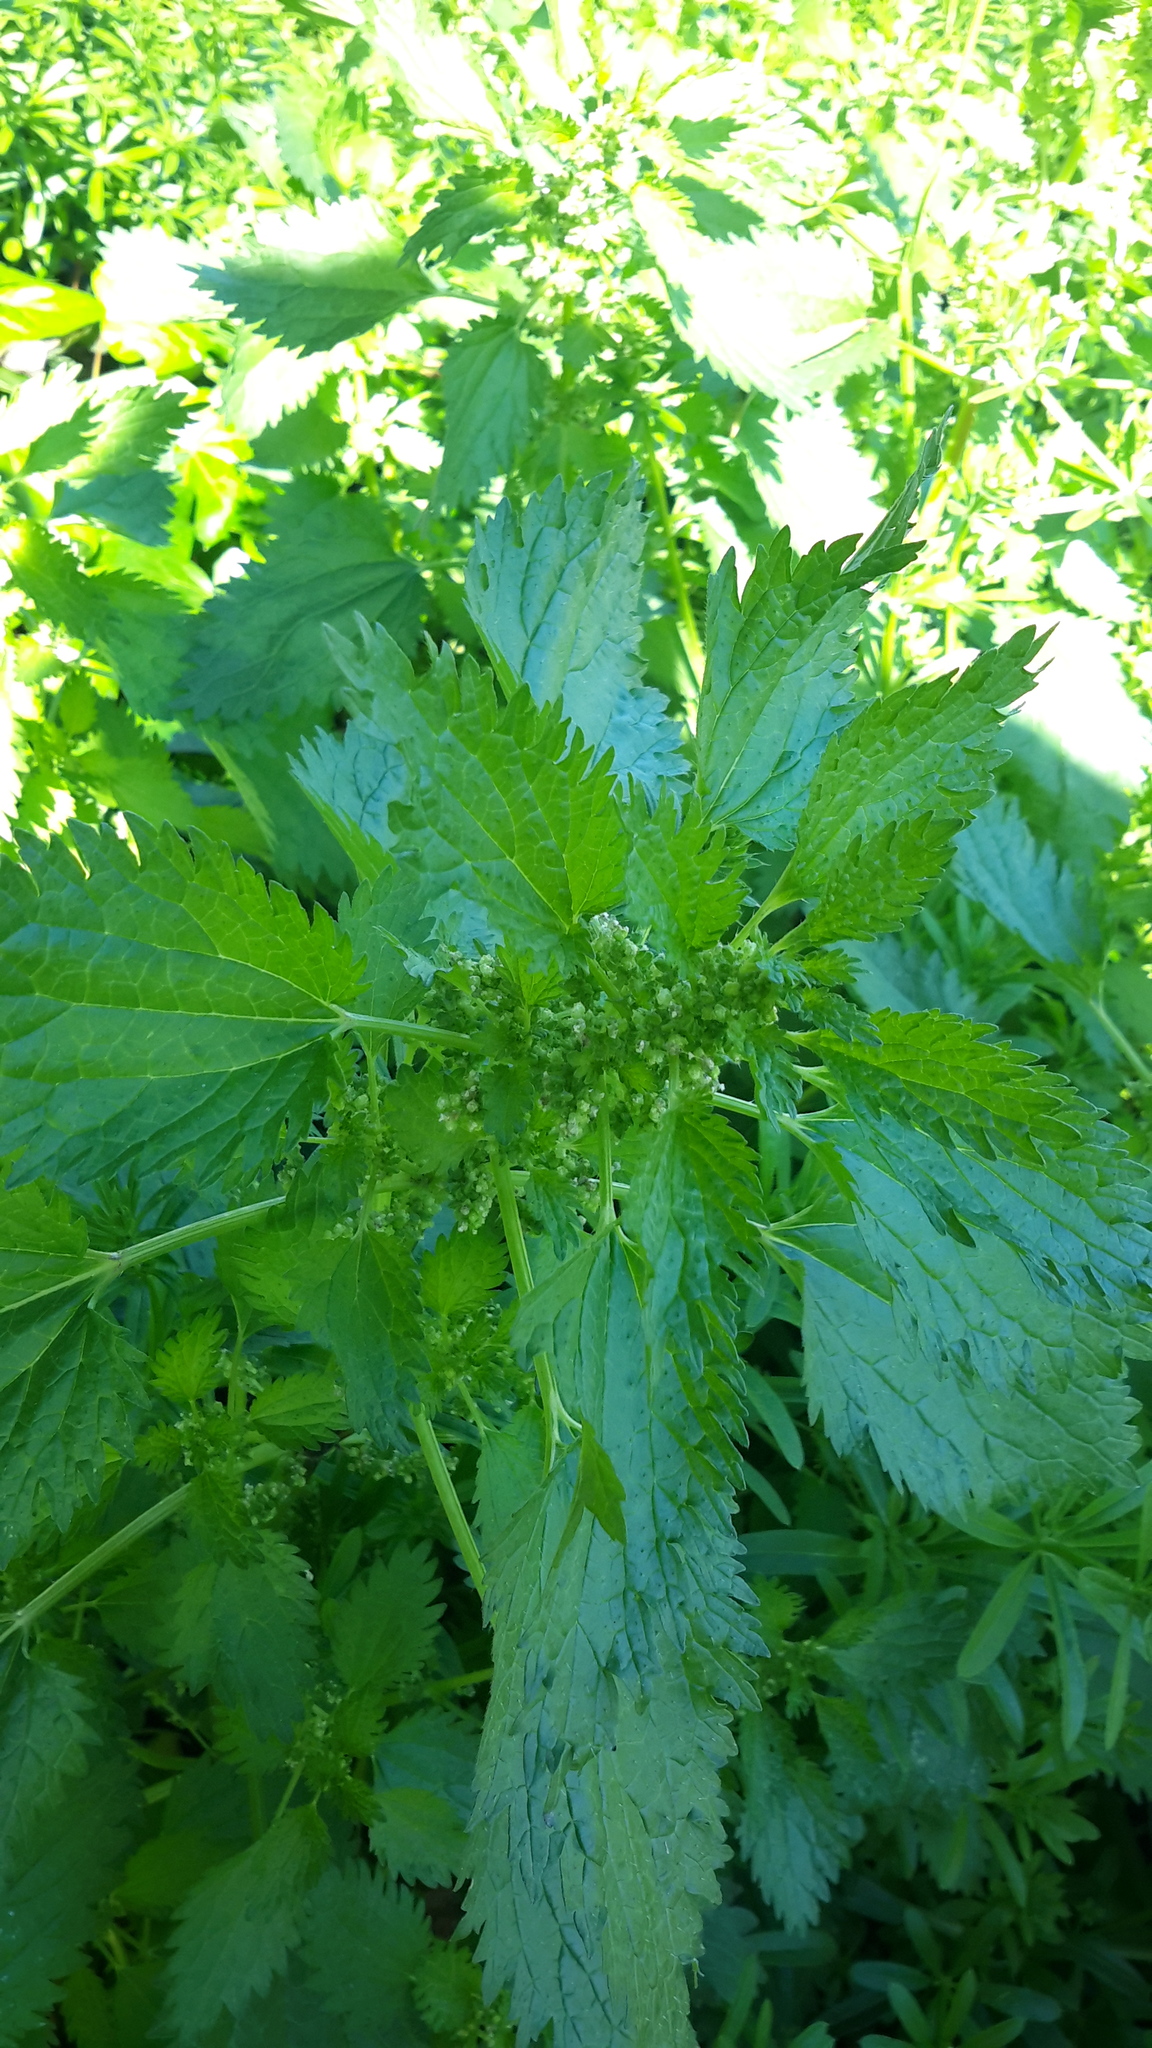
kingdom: Plantae
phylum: Tracheophyta
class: Magnoliopsida
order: Rosales
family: Urticaceae
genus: Urtica
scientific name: Urtica urens
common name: Dwarf nettle
